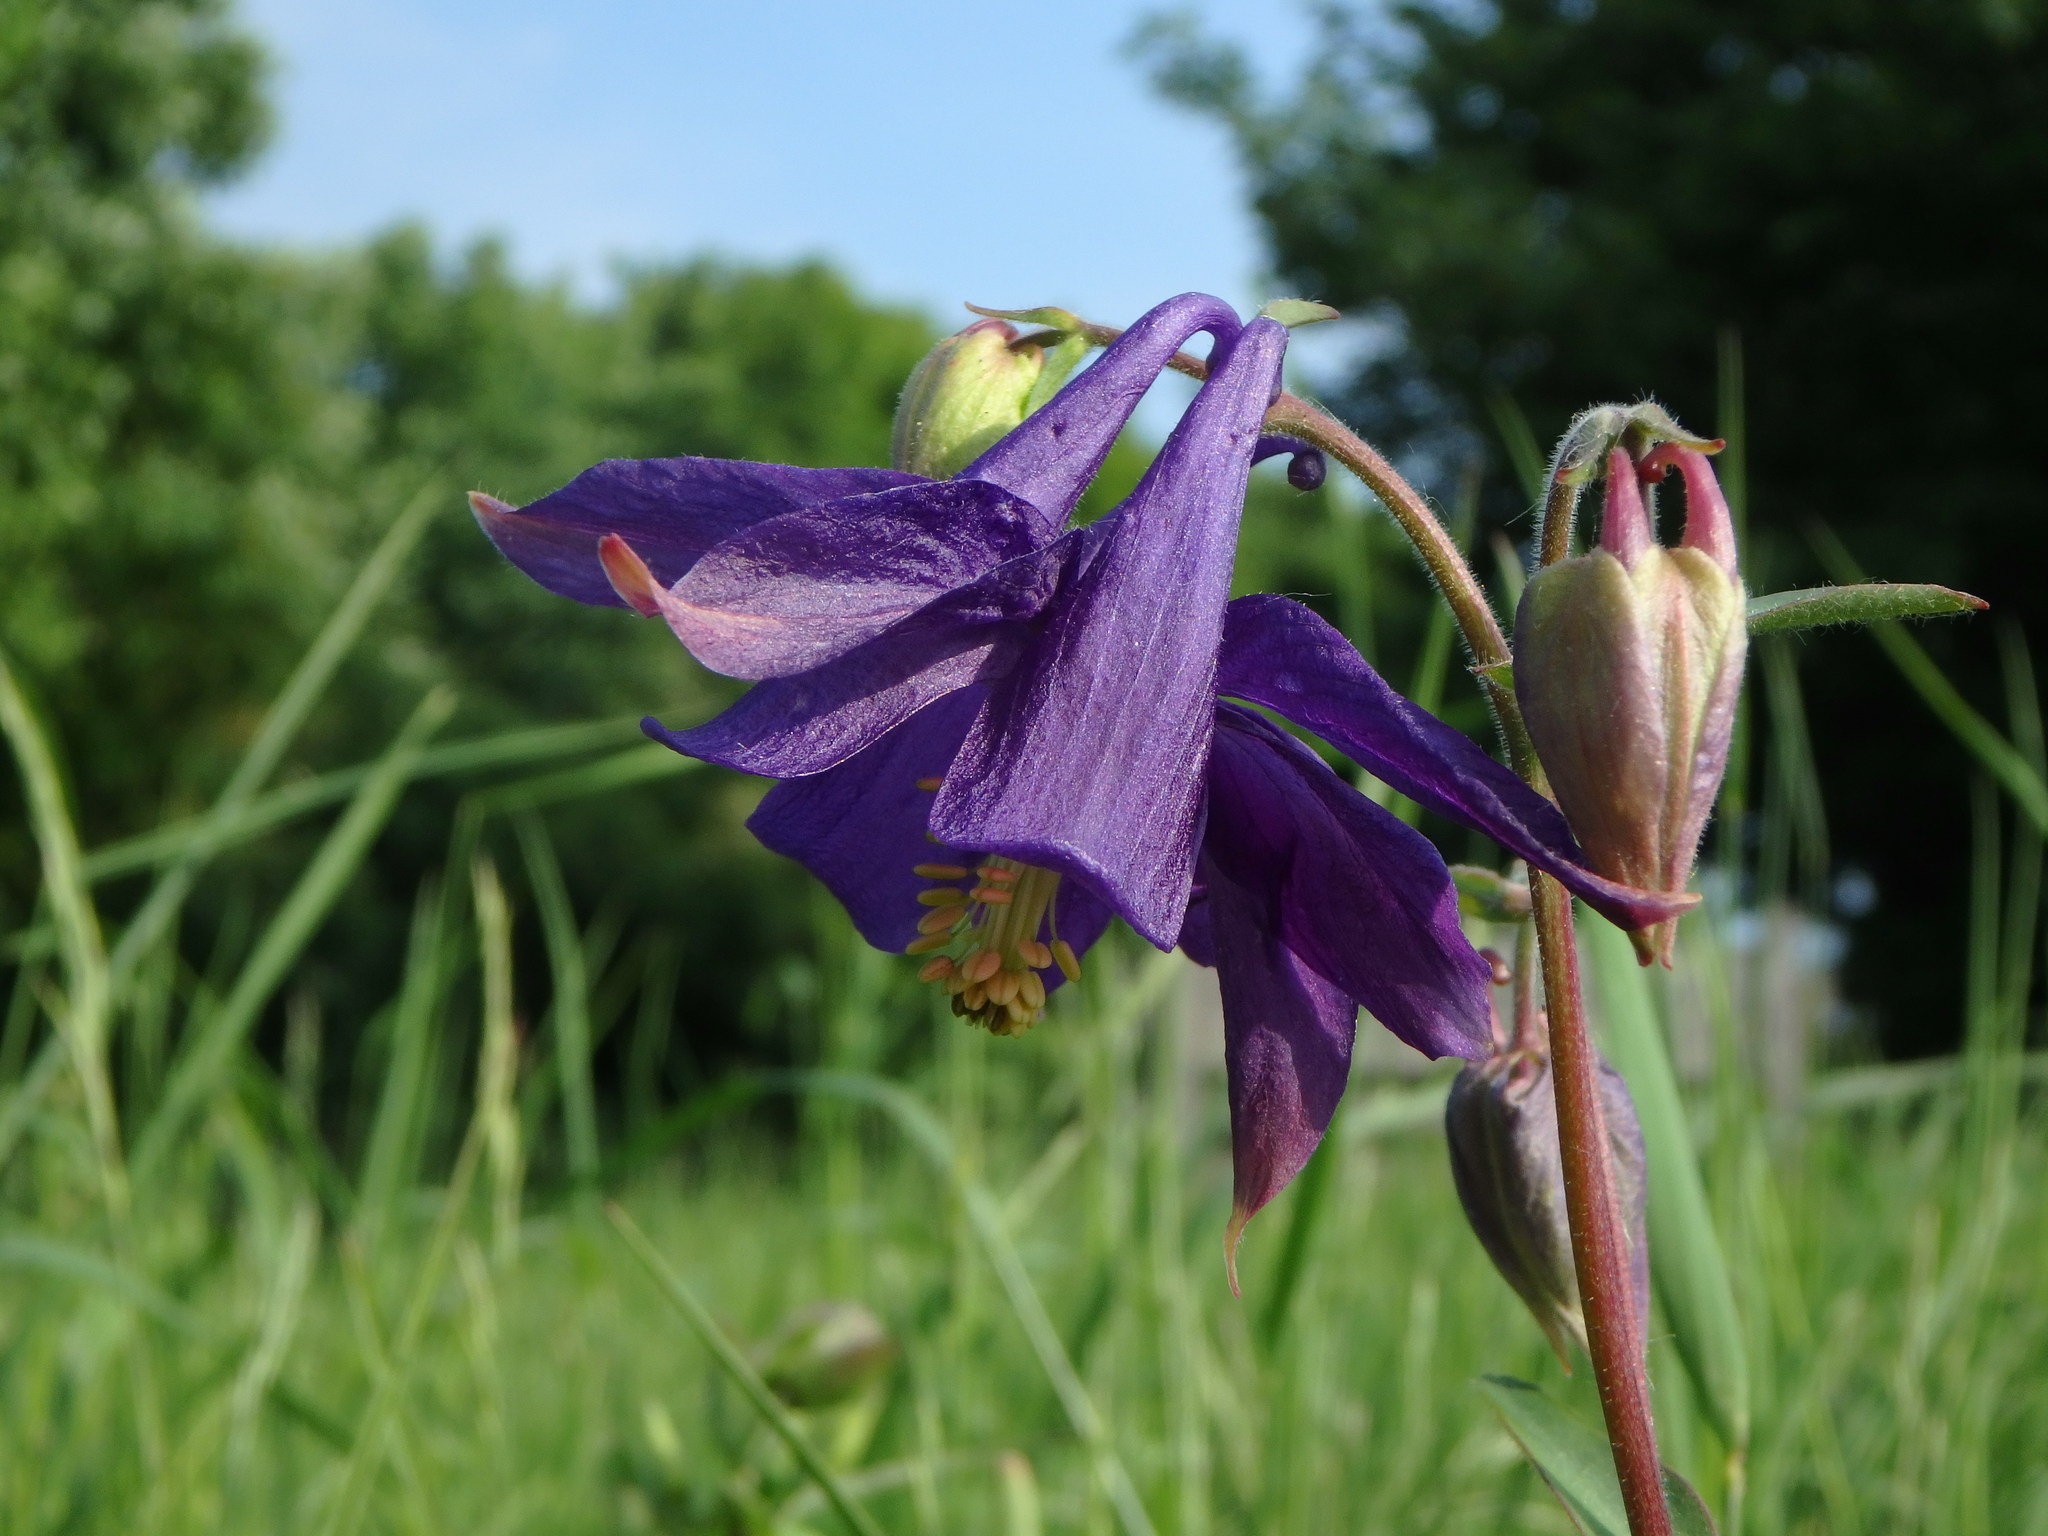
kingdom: Plantae
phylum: Tracheophyta
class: Magnoliopsida
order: Ranunculales
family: Ranunculaceae
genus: Aquilegia
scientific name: Aquilegia vulgaris
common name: Columbine
